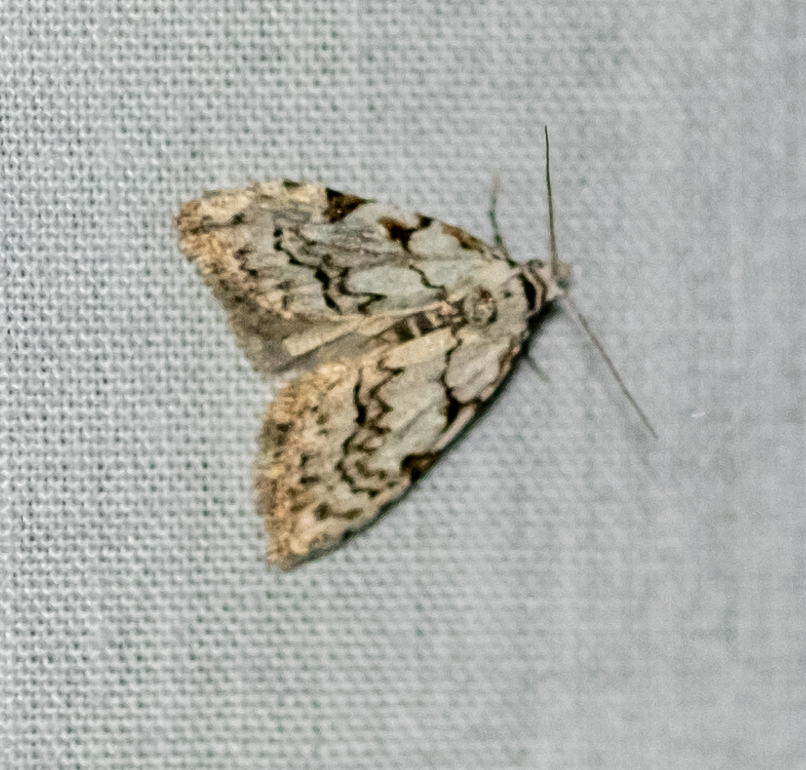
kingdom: Animalia
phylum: Arthropoda
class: Insecta
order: Lepidoptera
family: Nolidae
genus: Nola
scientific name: Nola confusalis
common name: Least black arches
